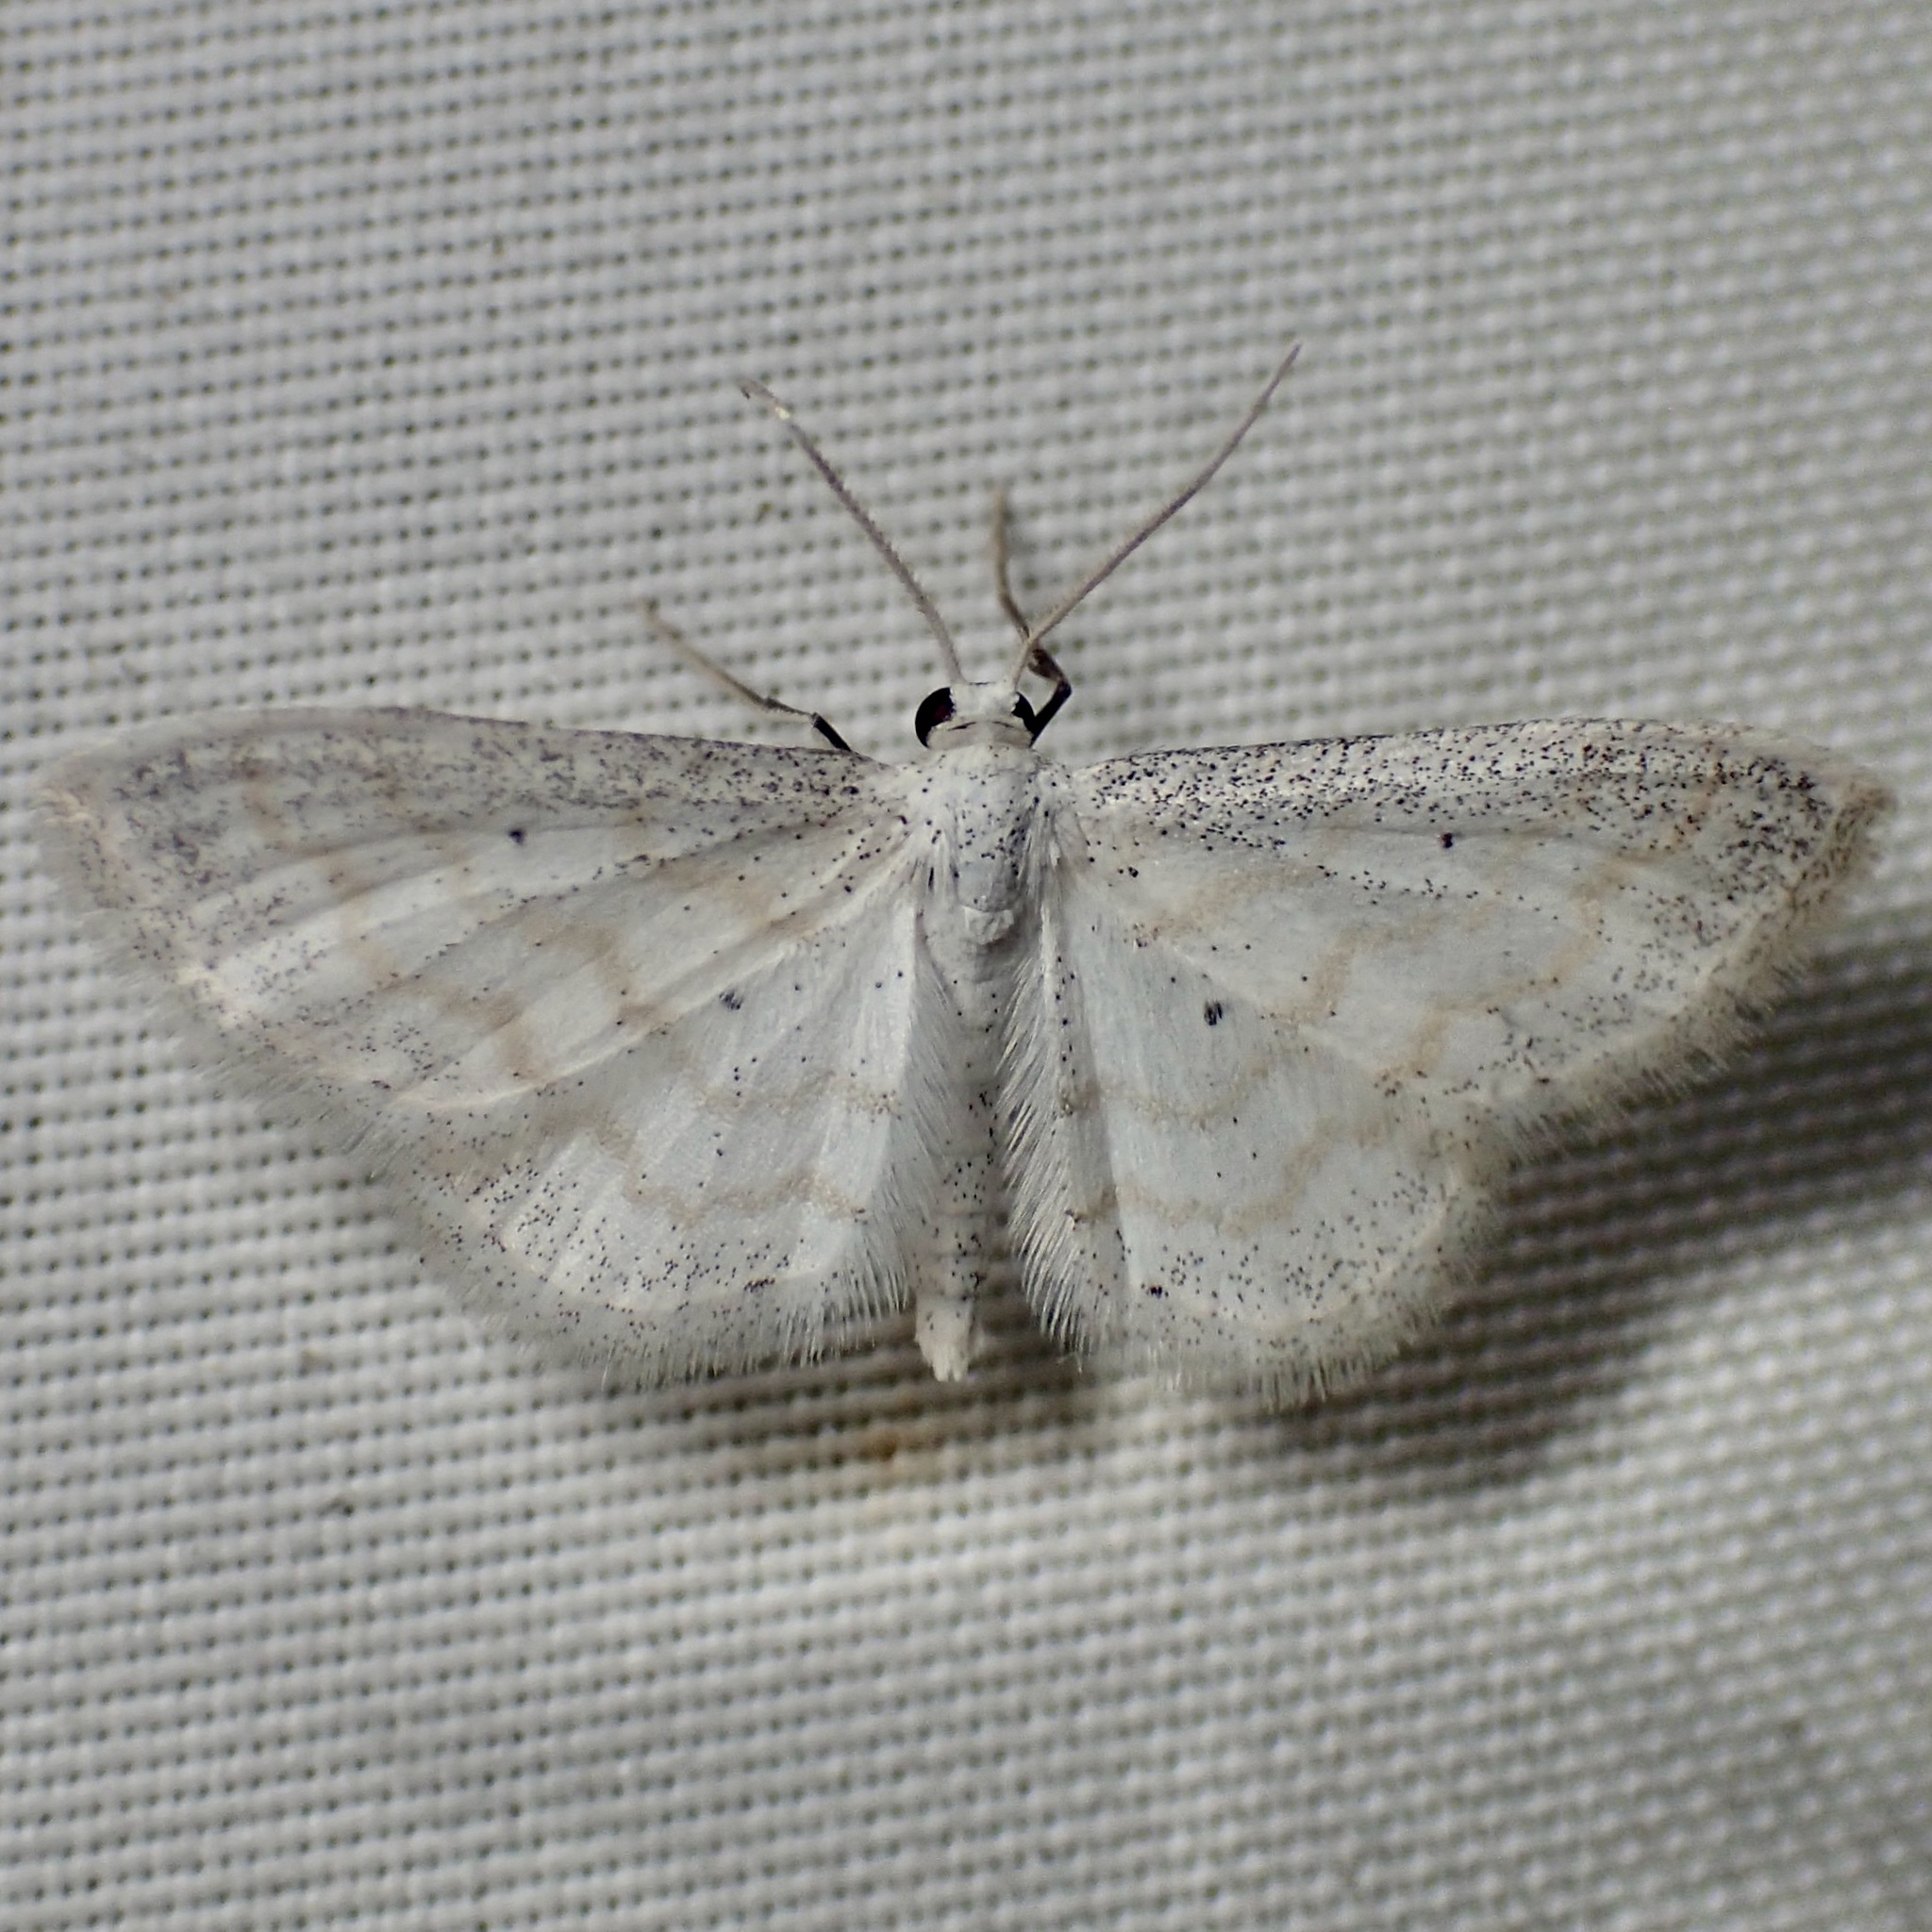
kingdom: Animalia
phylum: Arthropoda
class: Insecta
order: Lepidoptera
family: Geometridae
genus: Lobocleta
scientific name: Lobocleta peralbata
